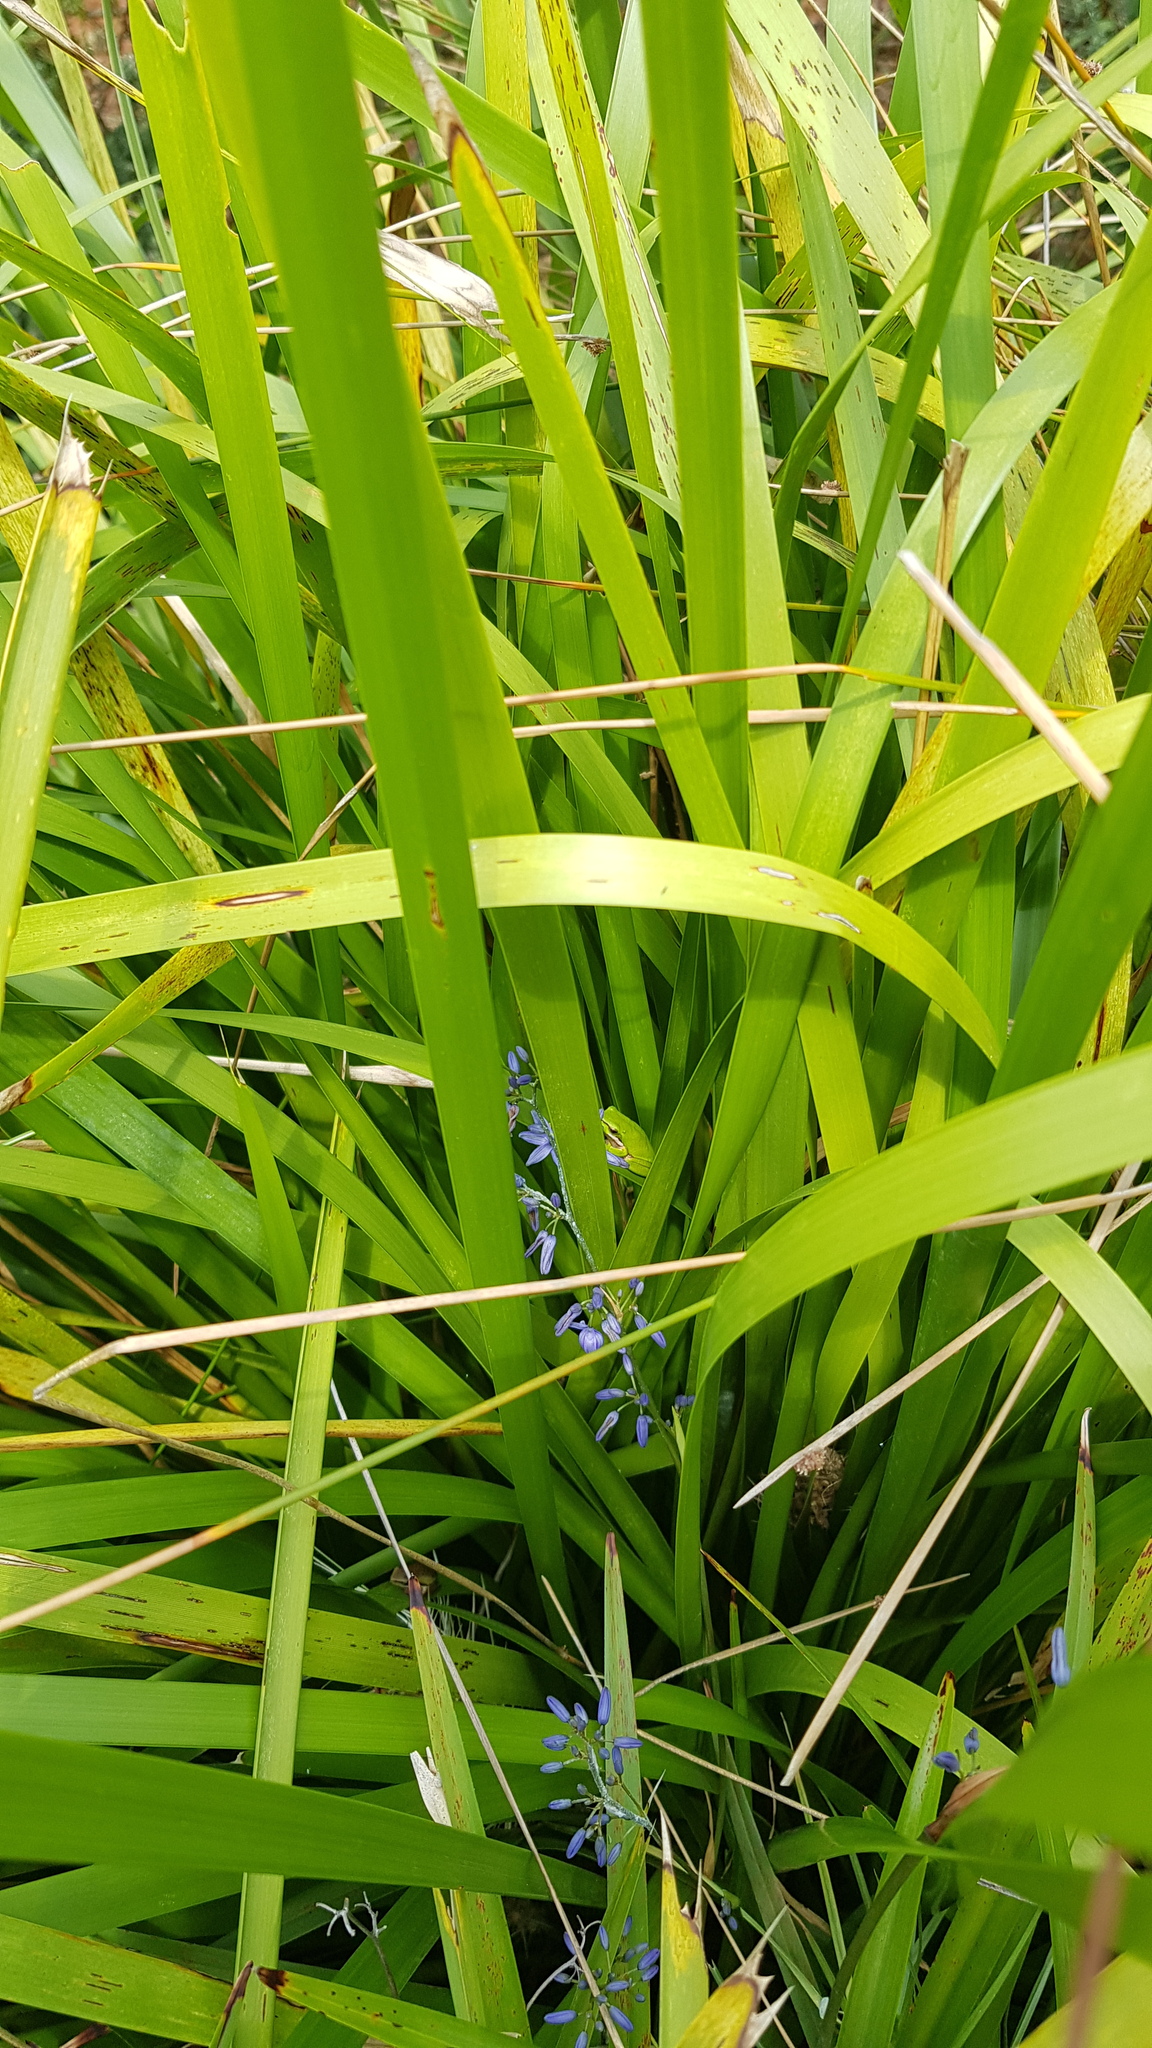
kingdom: Animalia
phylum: Chordata
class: Amphibia
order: Anura
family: Pelodryadidae
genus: Litoria
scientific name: Litoria fallax
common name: Eastern dwarf treefrog
